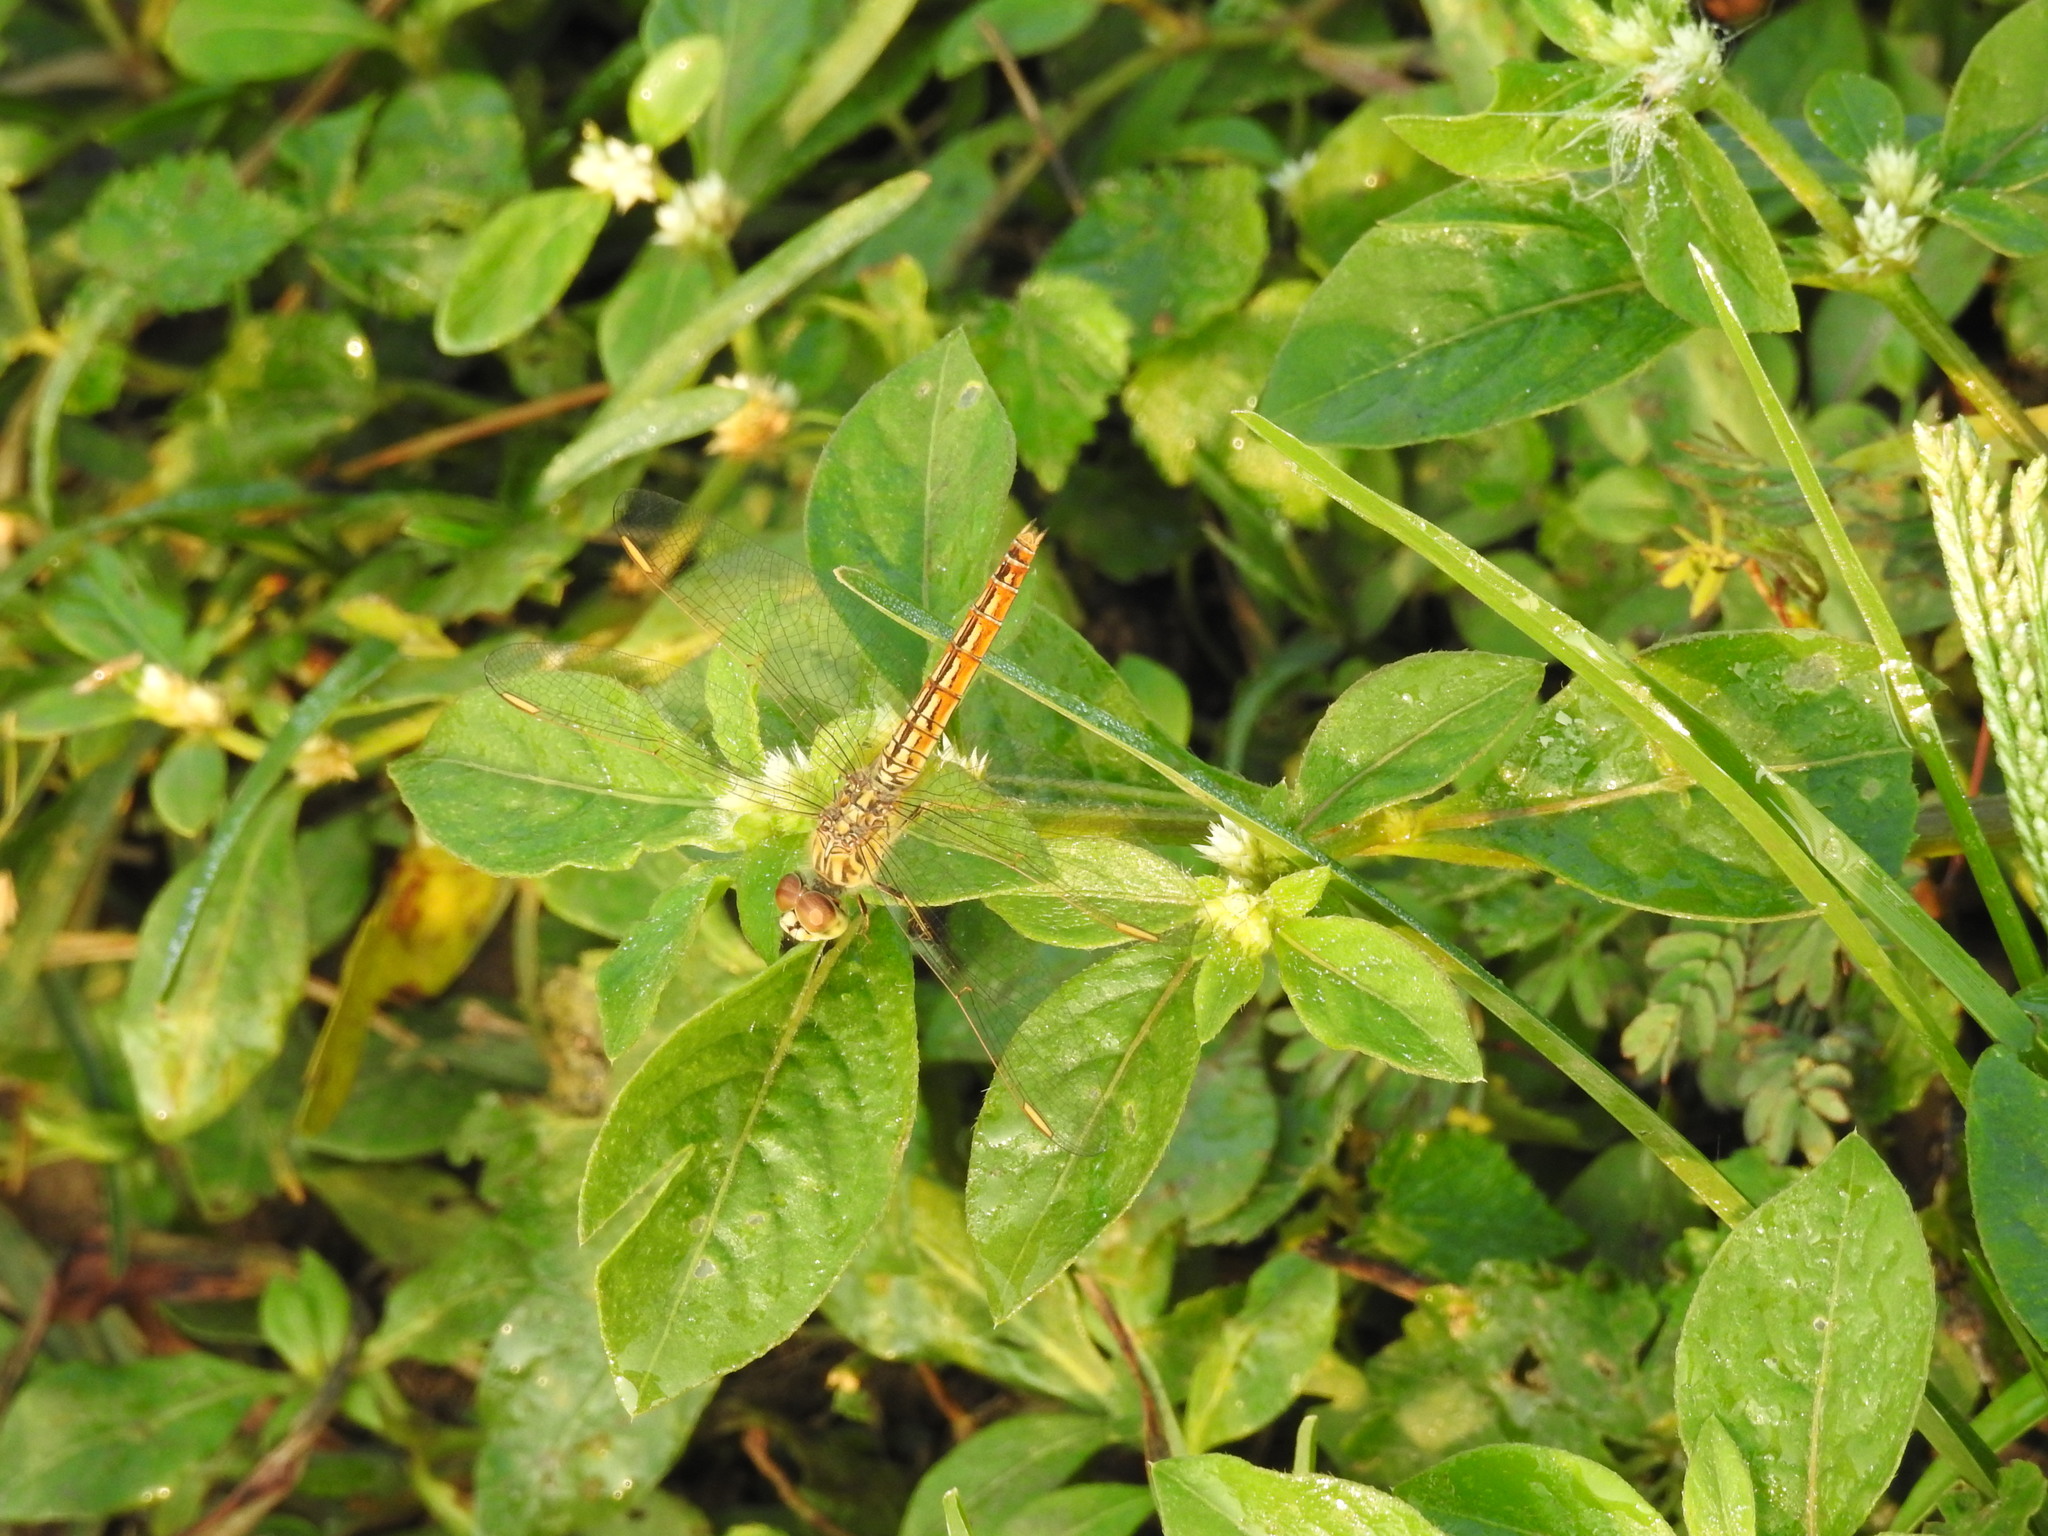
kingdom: Animalia
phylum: Arthropoda
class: Insecta
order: Odonata
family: Libellulidae
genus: Brachythemis
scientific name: Brachythemis contaminata
